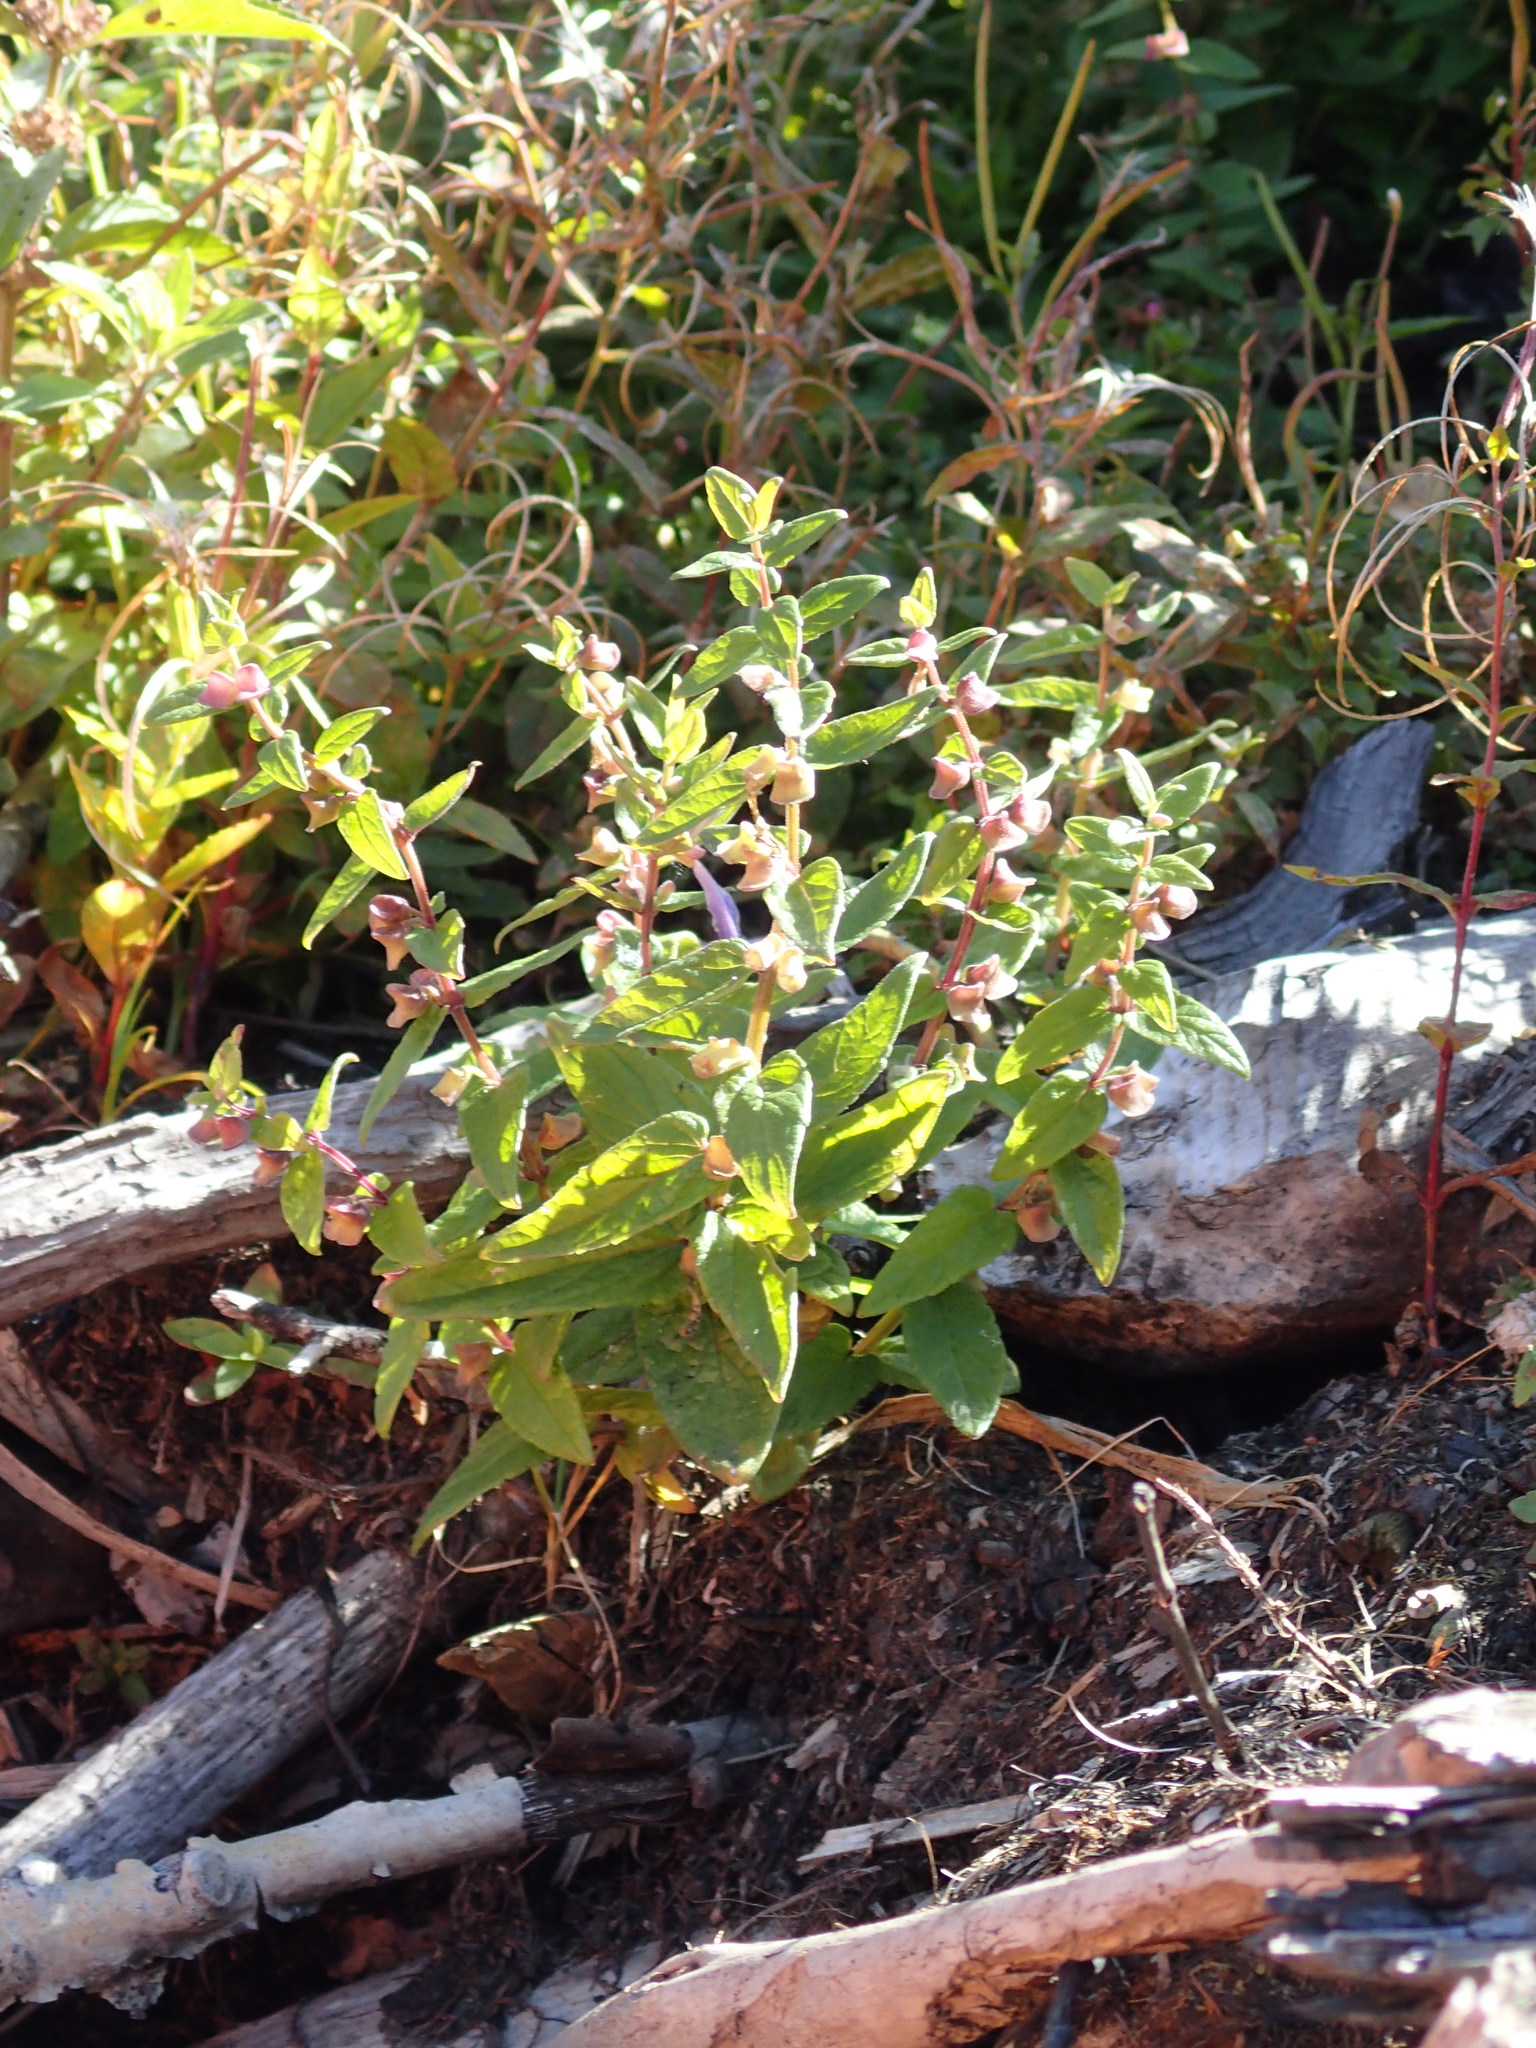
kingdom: Plantae
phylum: Tracheophyta
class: Magnoliopsida
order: Lamiales
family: Lamiaceae
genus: Scutellaria
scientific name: Scutellaria galericulata
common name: Skullcap
